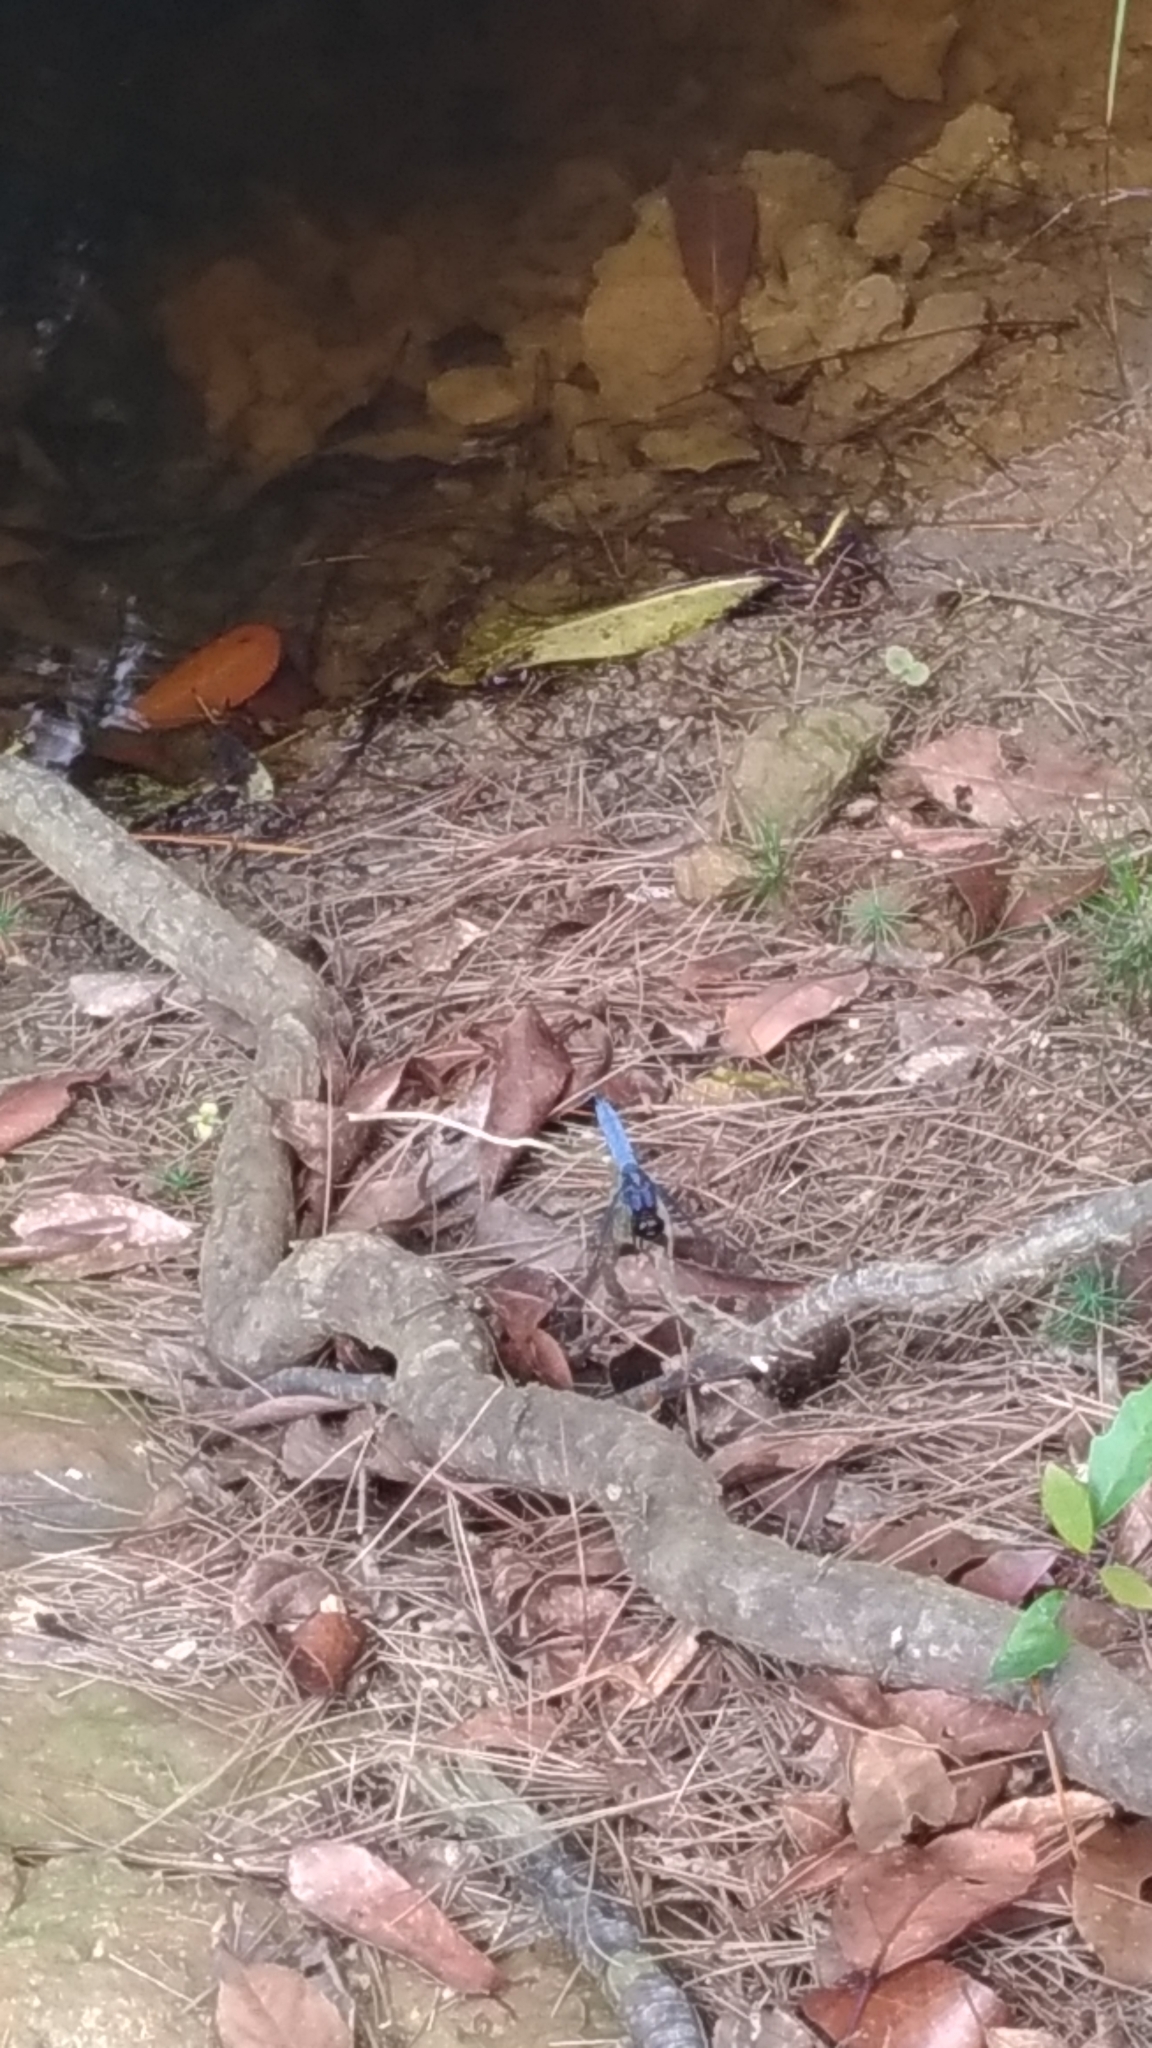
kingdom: Animalia
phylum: Arthropoda
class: Insecta
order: Odonata
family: Libellulidae
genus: Orthetrum
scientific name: Orthetrum melania
